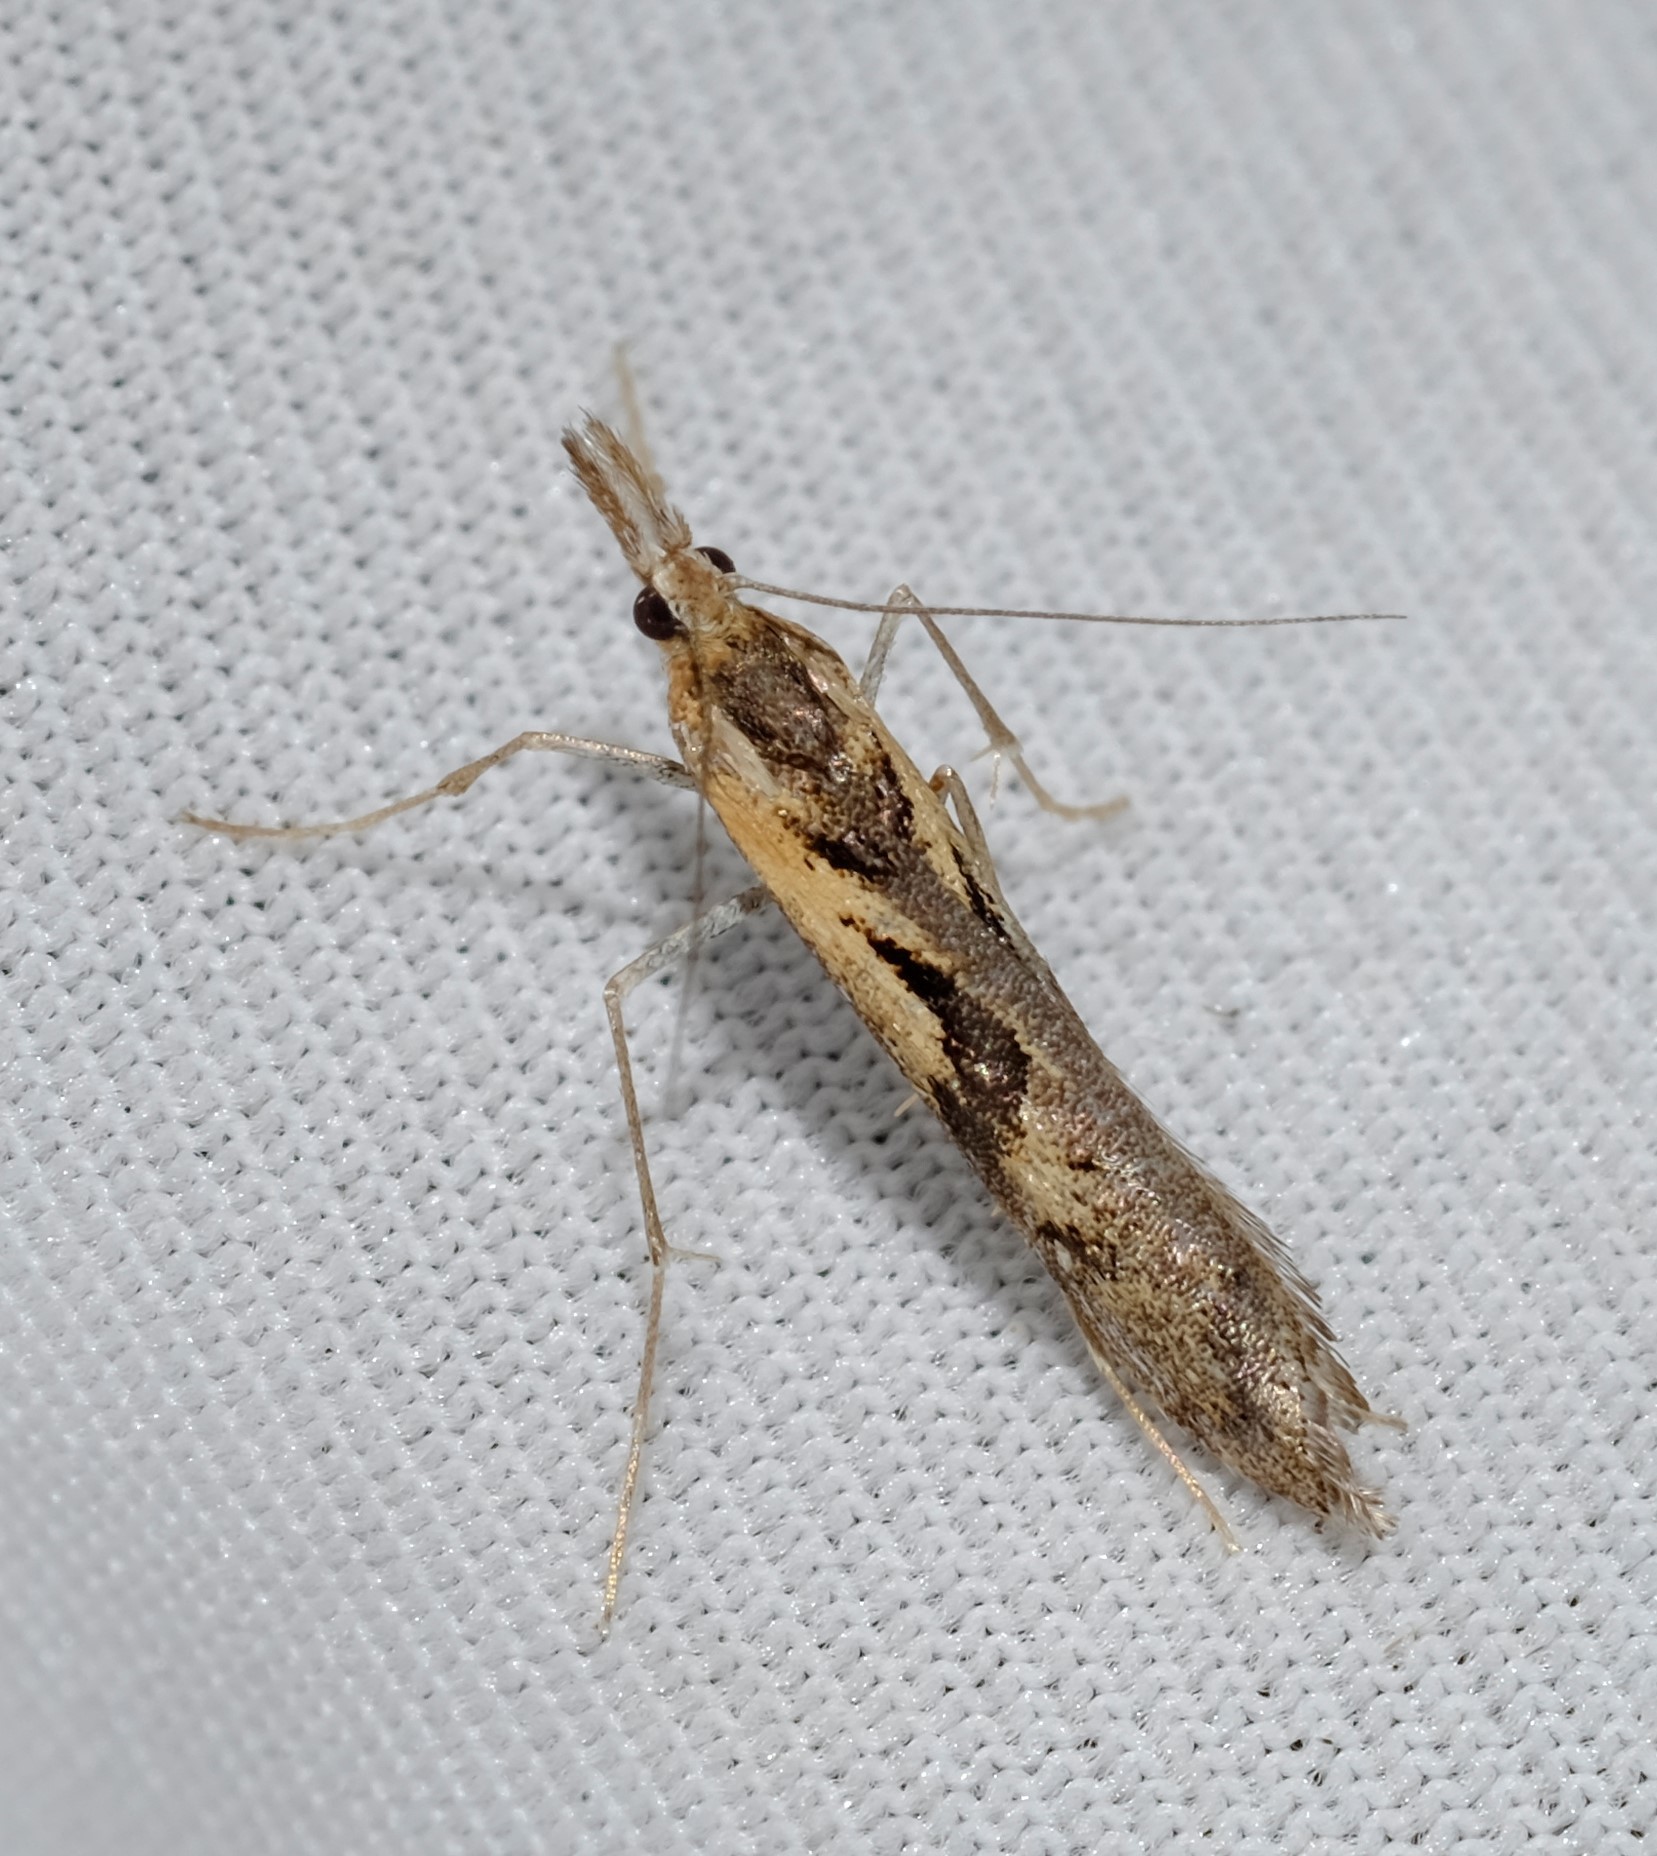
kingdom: Animalia
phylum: Arthropoda
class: Insecta
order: Lepidoptera
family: Crambidae
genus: Hednota
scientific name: Hednota pedionoma
